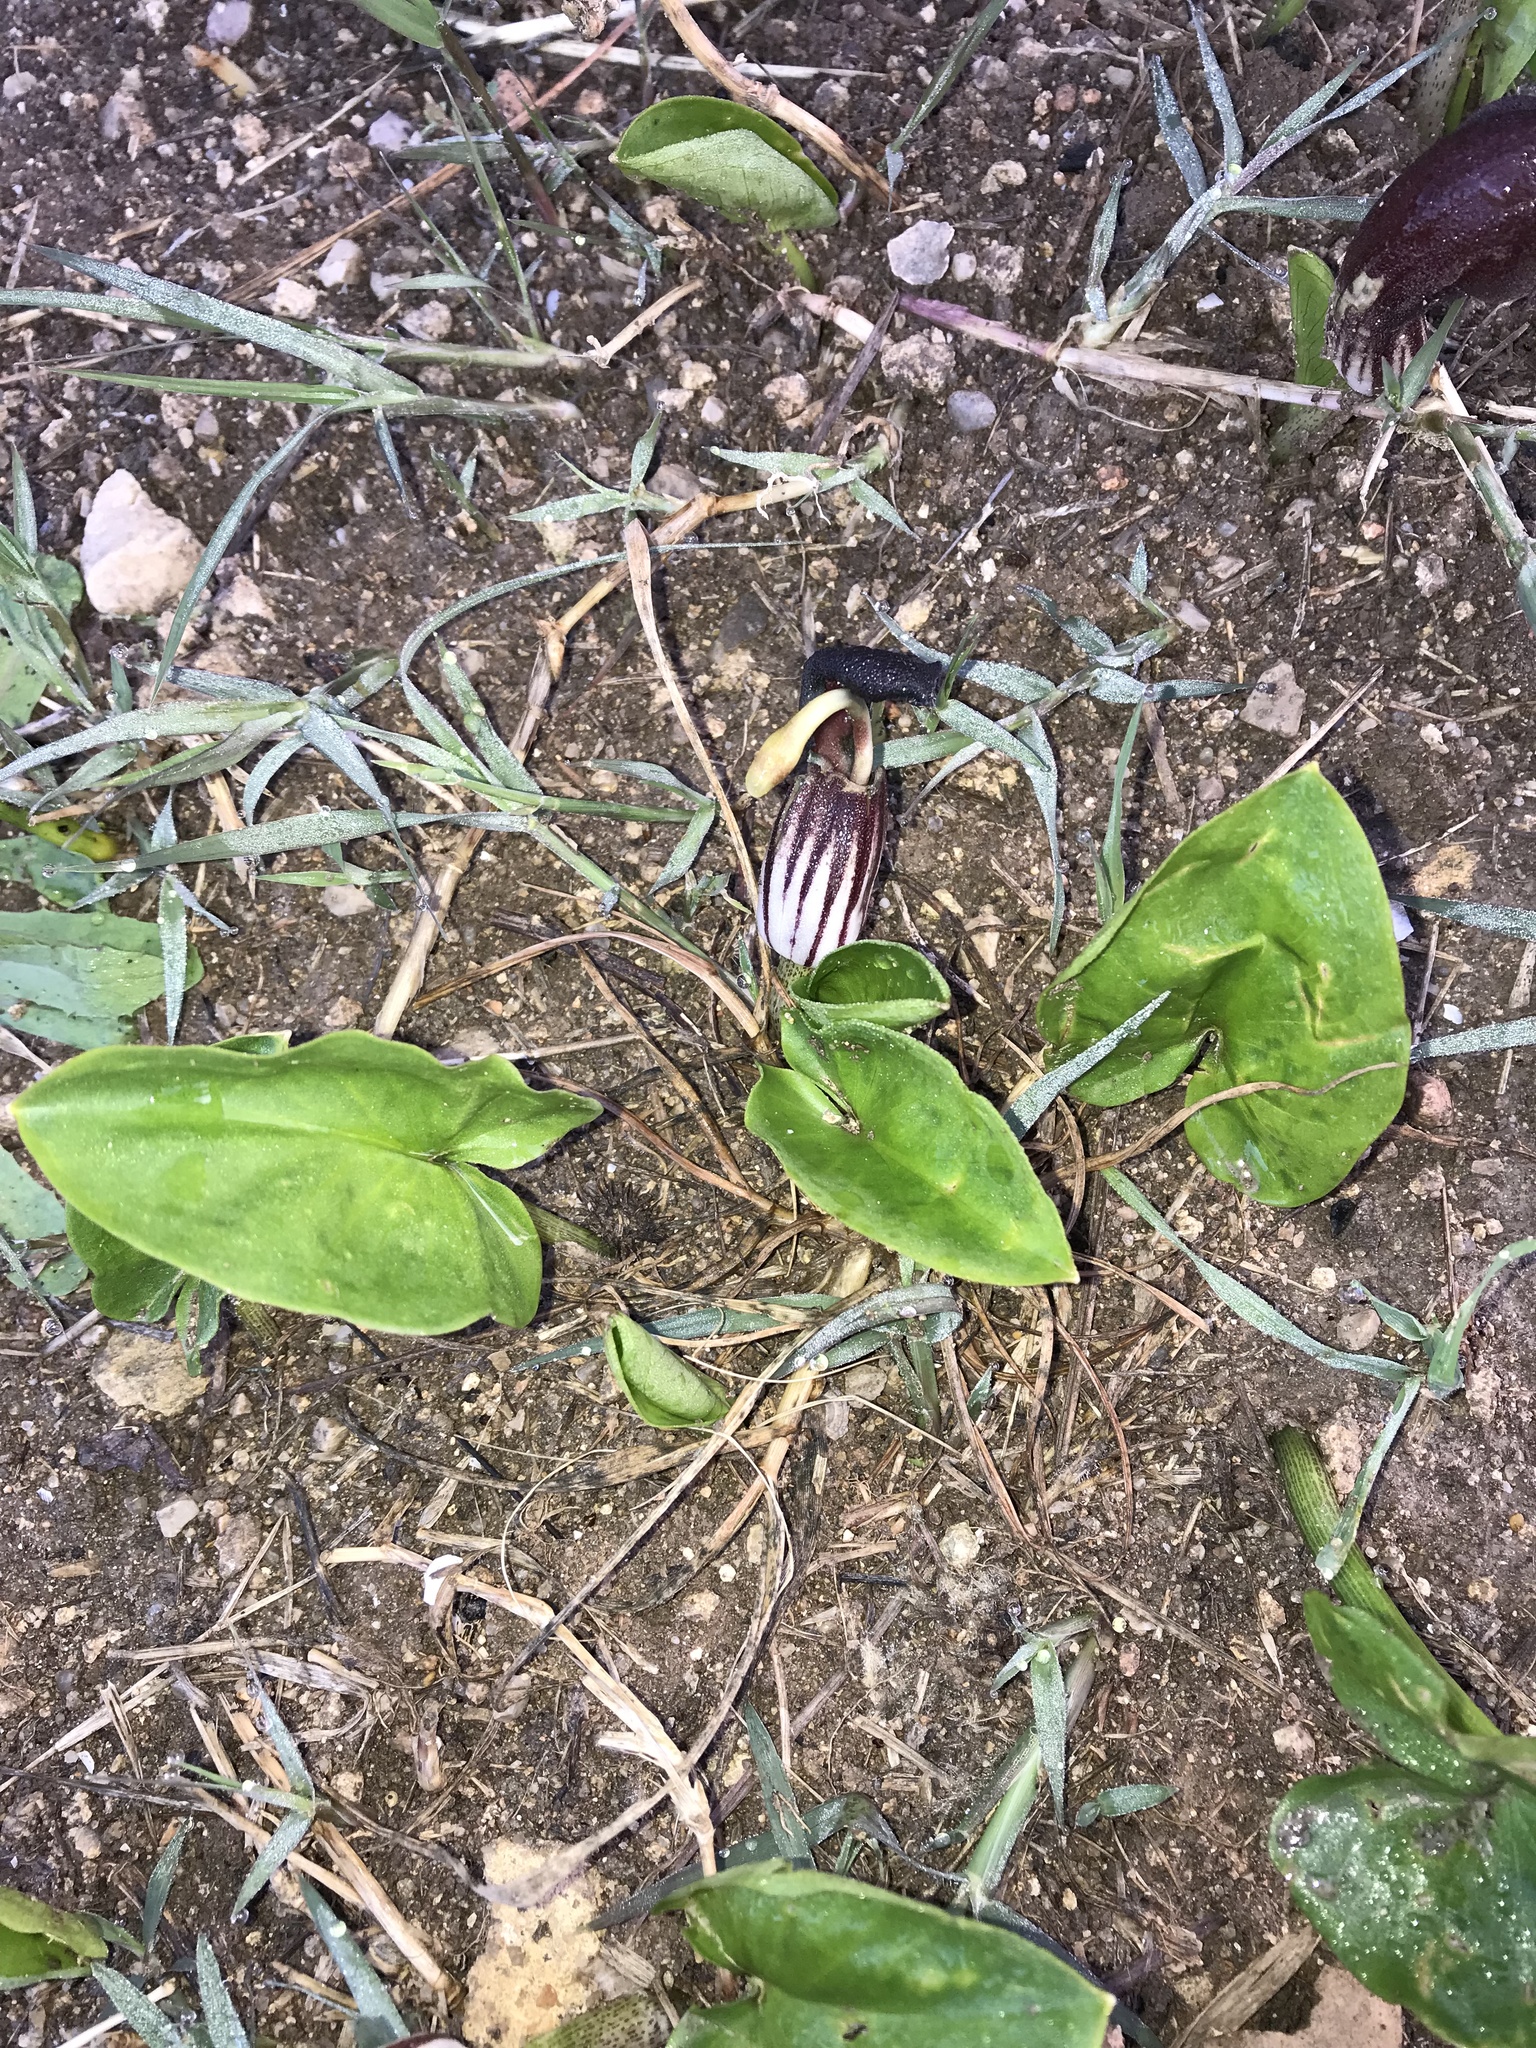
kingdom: Plantae
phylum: Tracheophyta
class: Liliopsida
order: Alismatales
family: Araceae
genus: Arisarum
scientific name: Arisarum simorrhinum
